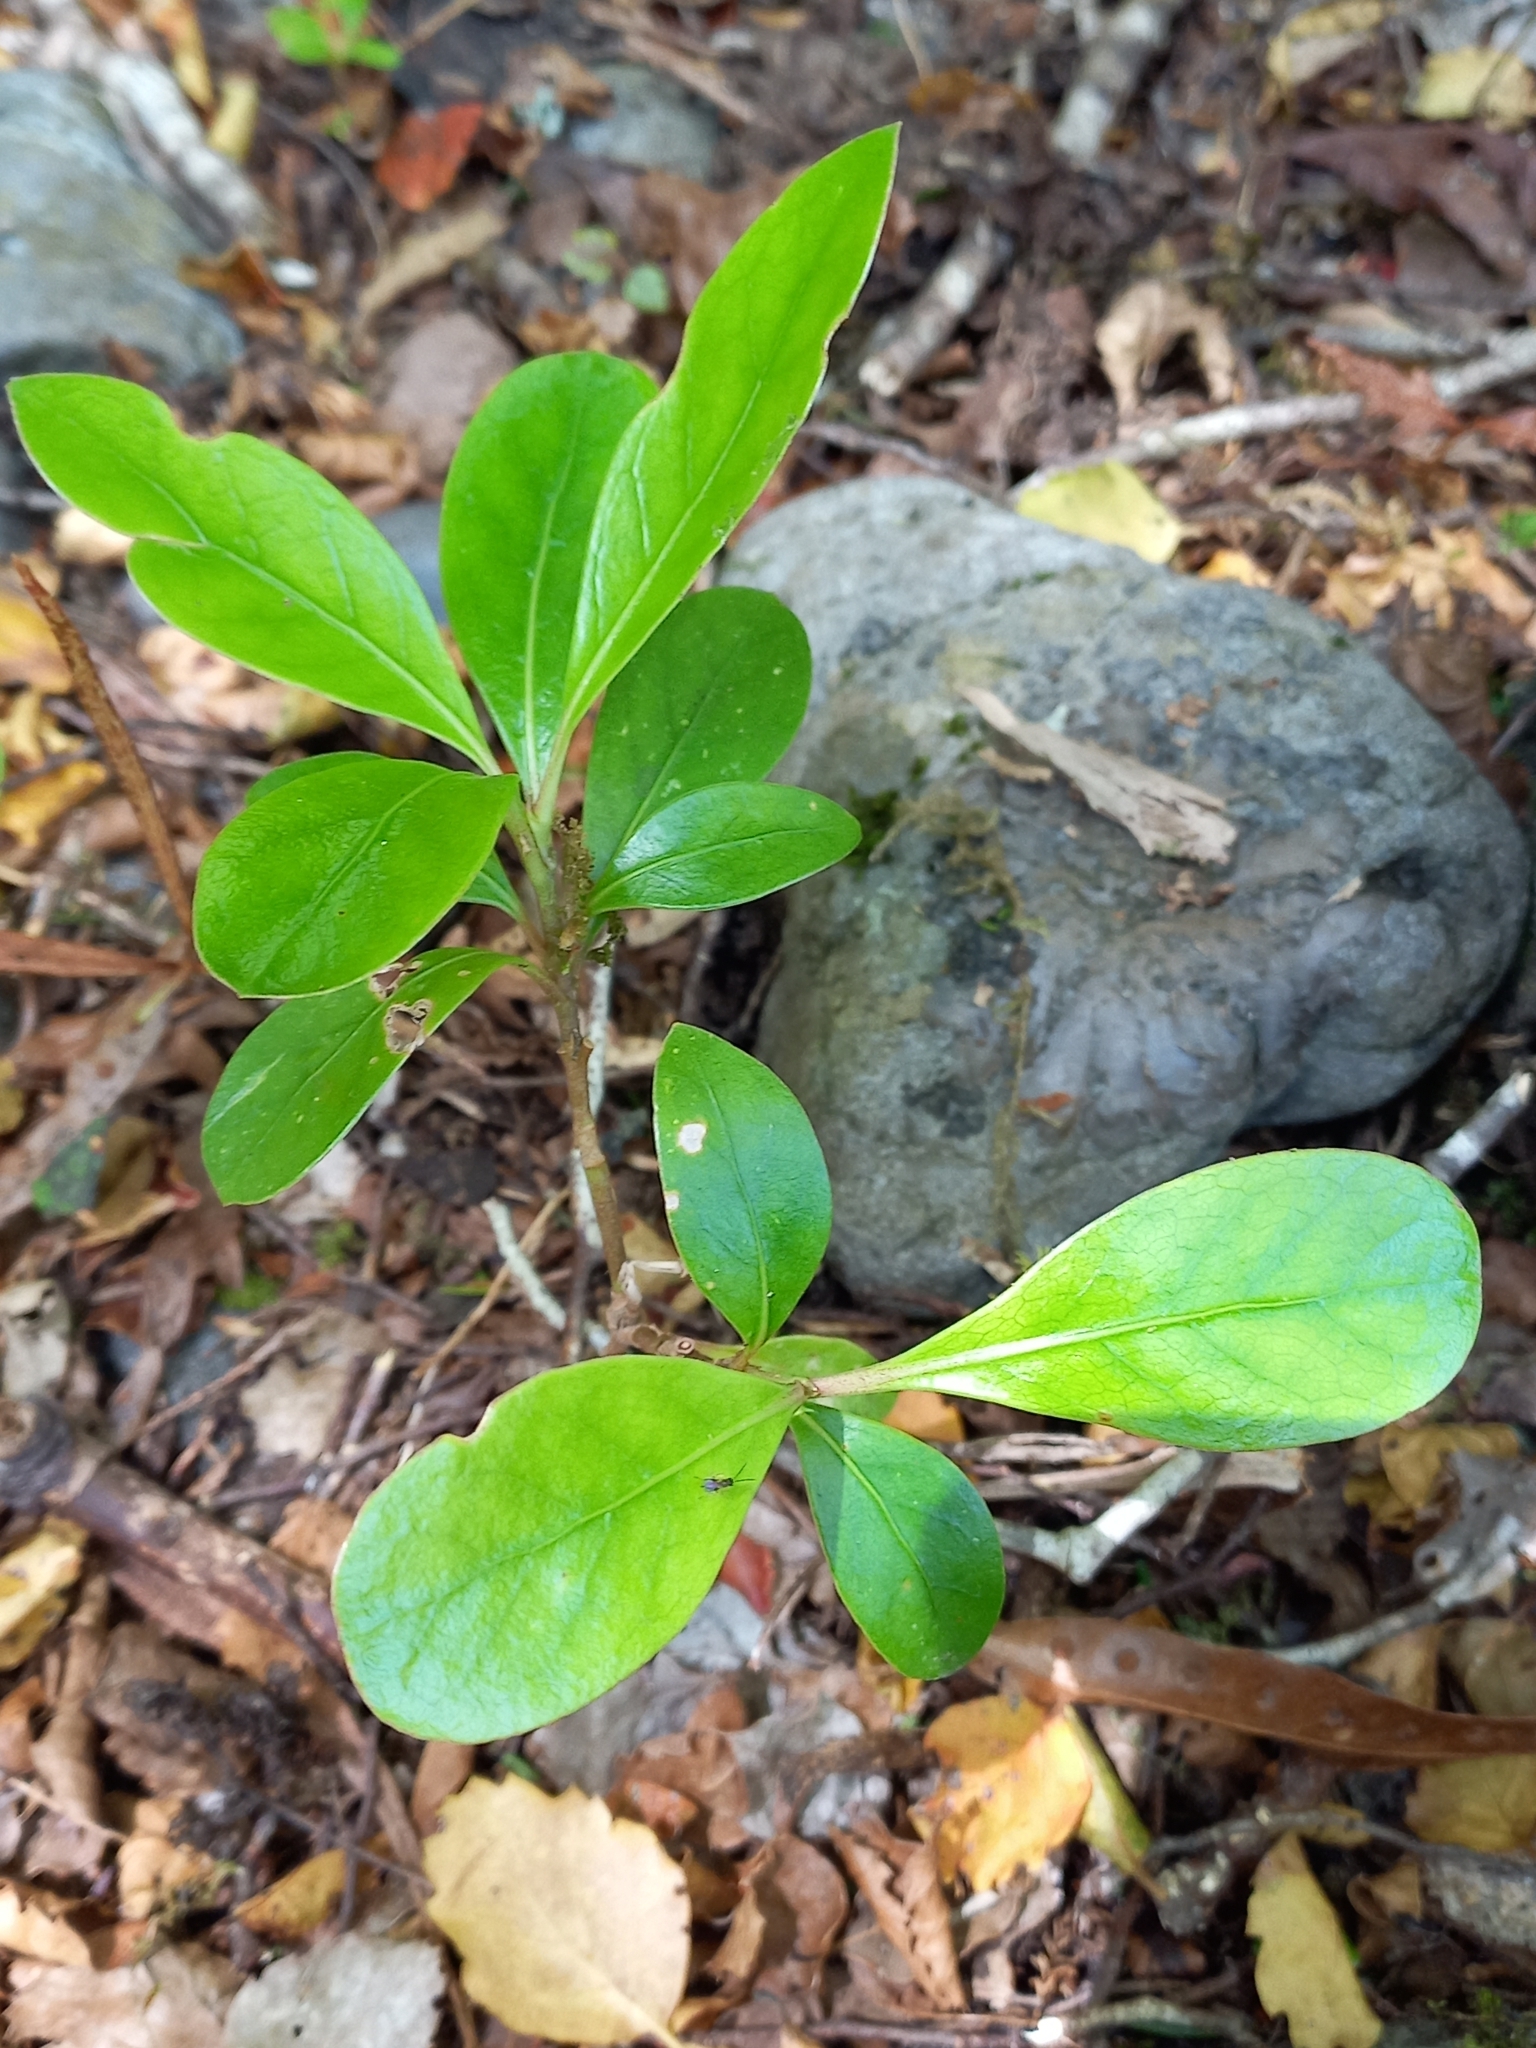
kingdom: Plantae
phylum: Tracheophyta
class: Magnoliopsida
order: Gentianales
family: Rubiaceae
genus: Coprosma
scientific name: Coprosma lucida
